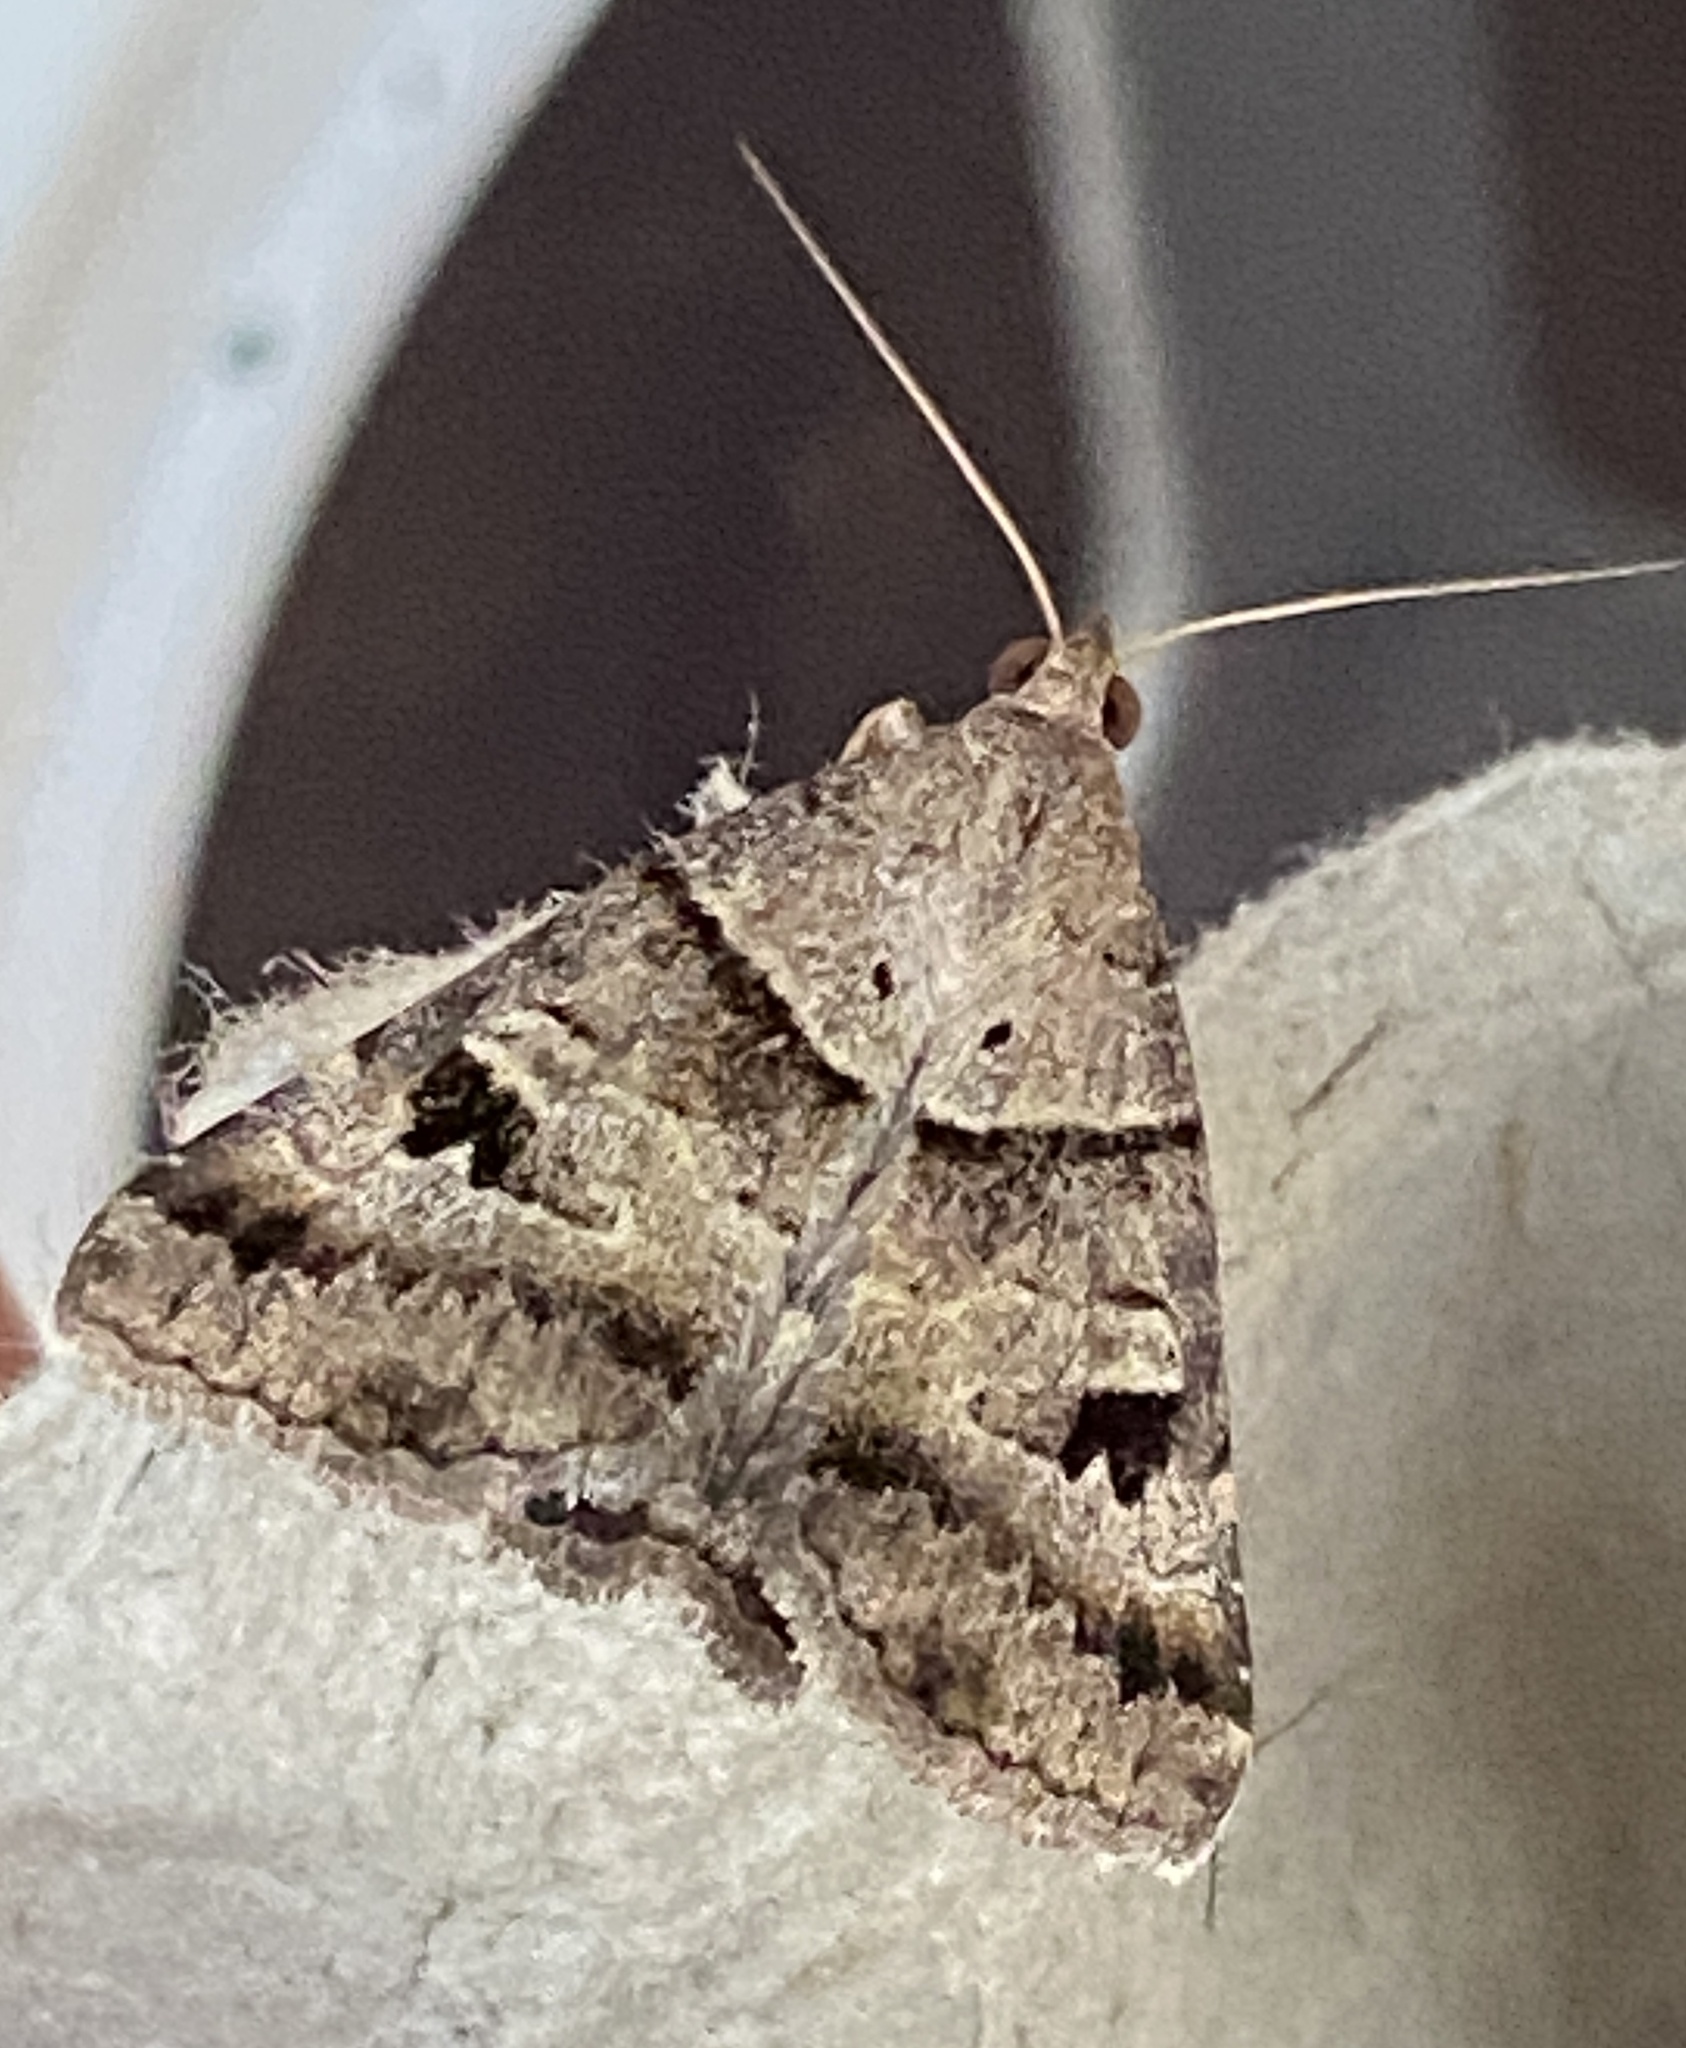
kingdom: Animalia
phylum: Arthropoda
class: Insecta
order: Lepidoptera
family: Erebidae
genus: Mocis
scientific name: Mocis alterna
